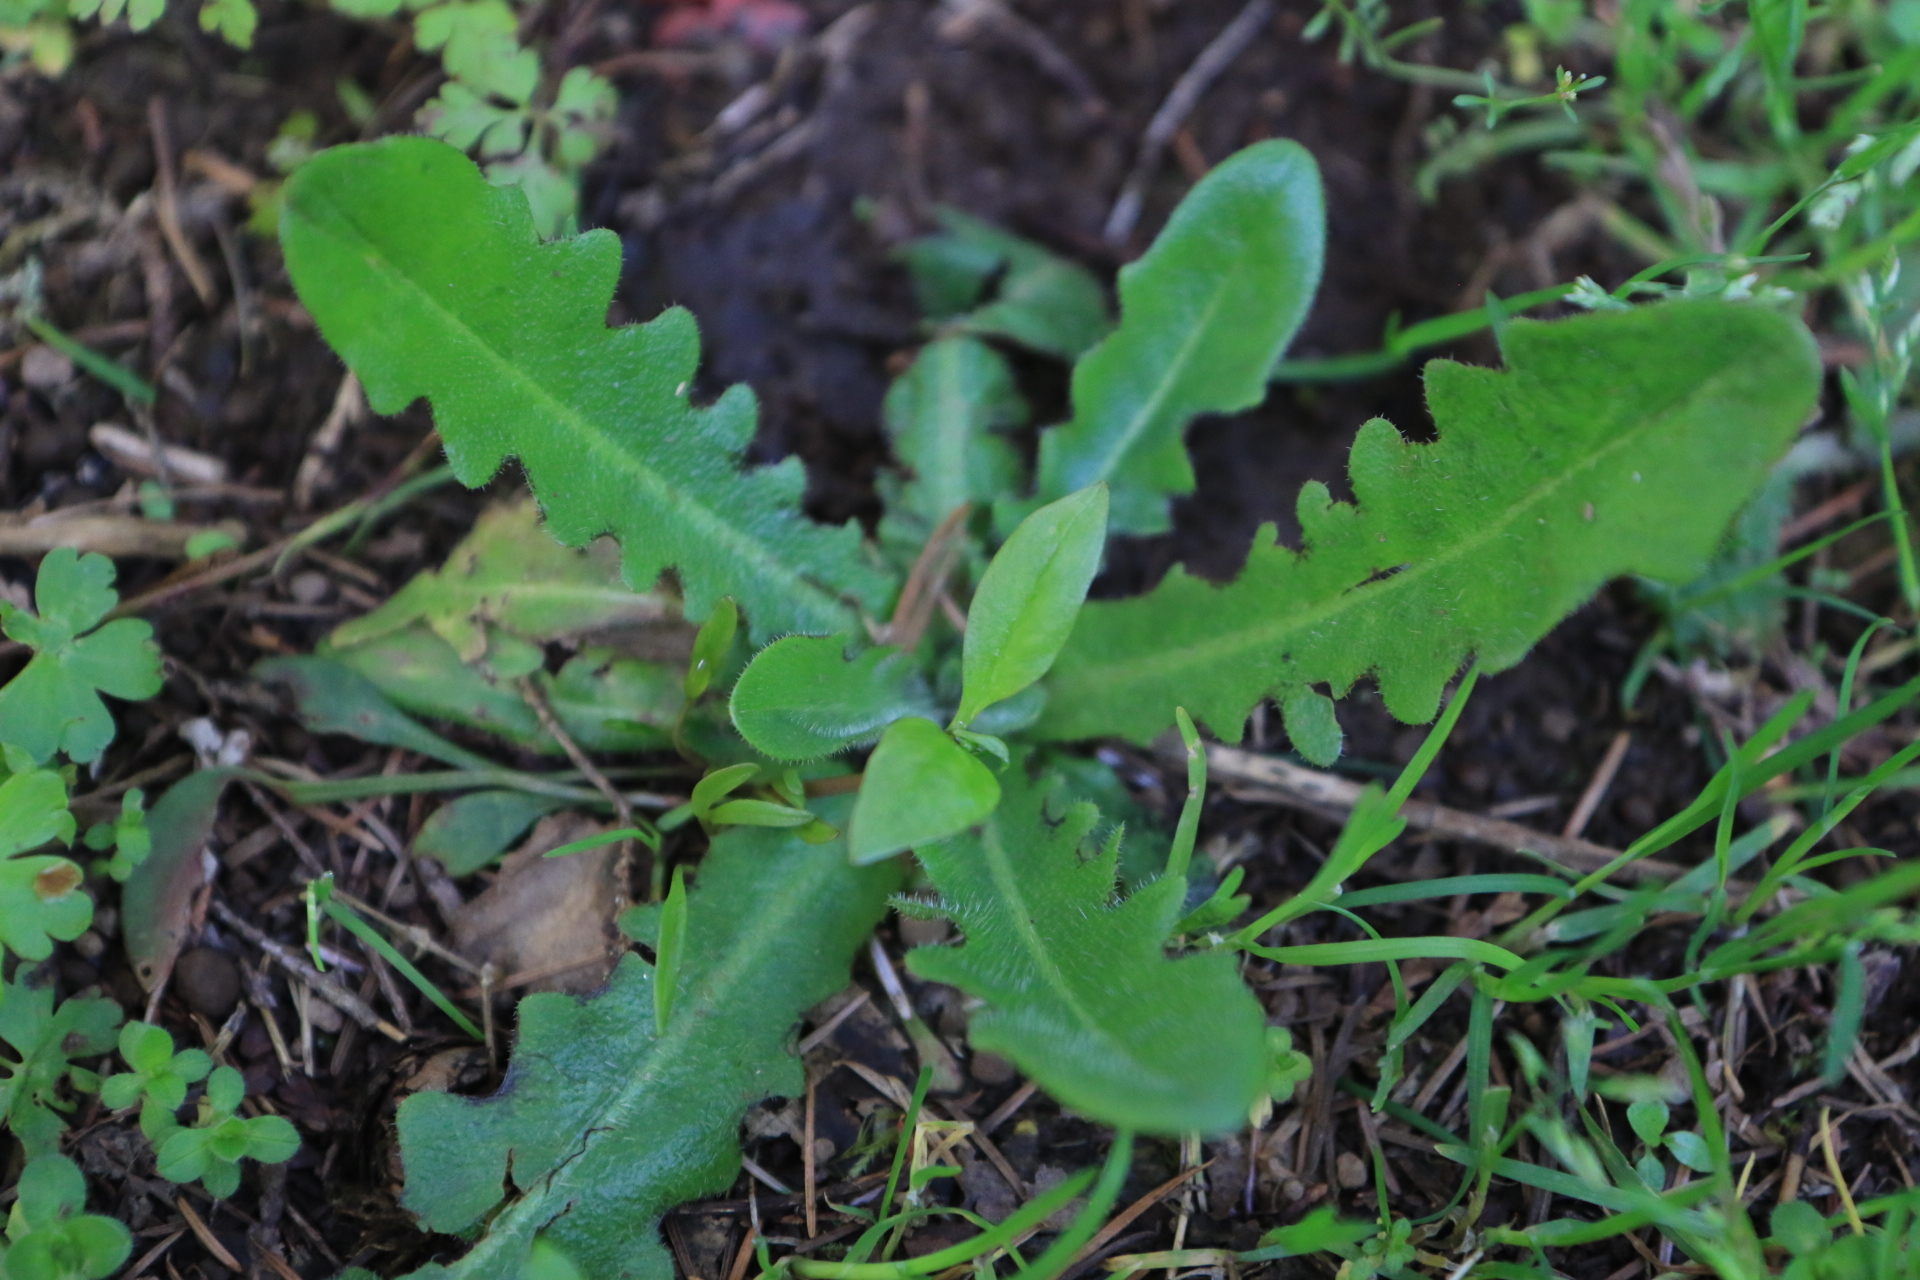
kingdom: Plantae
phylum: Tracheophyta
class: Magnoliopsida
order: Asterales
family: Asteraceae
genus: Hypochaeris
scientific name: Hypochaeris radicata
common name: Flatweed
